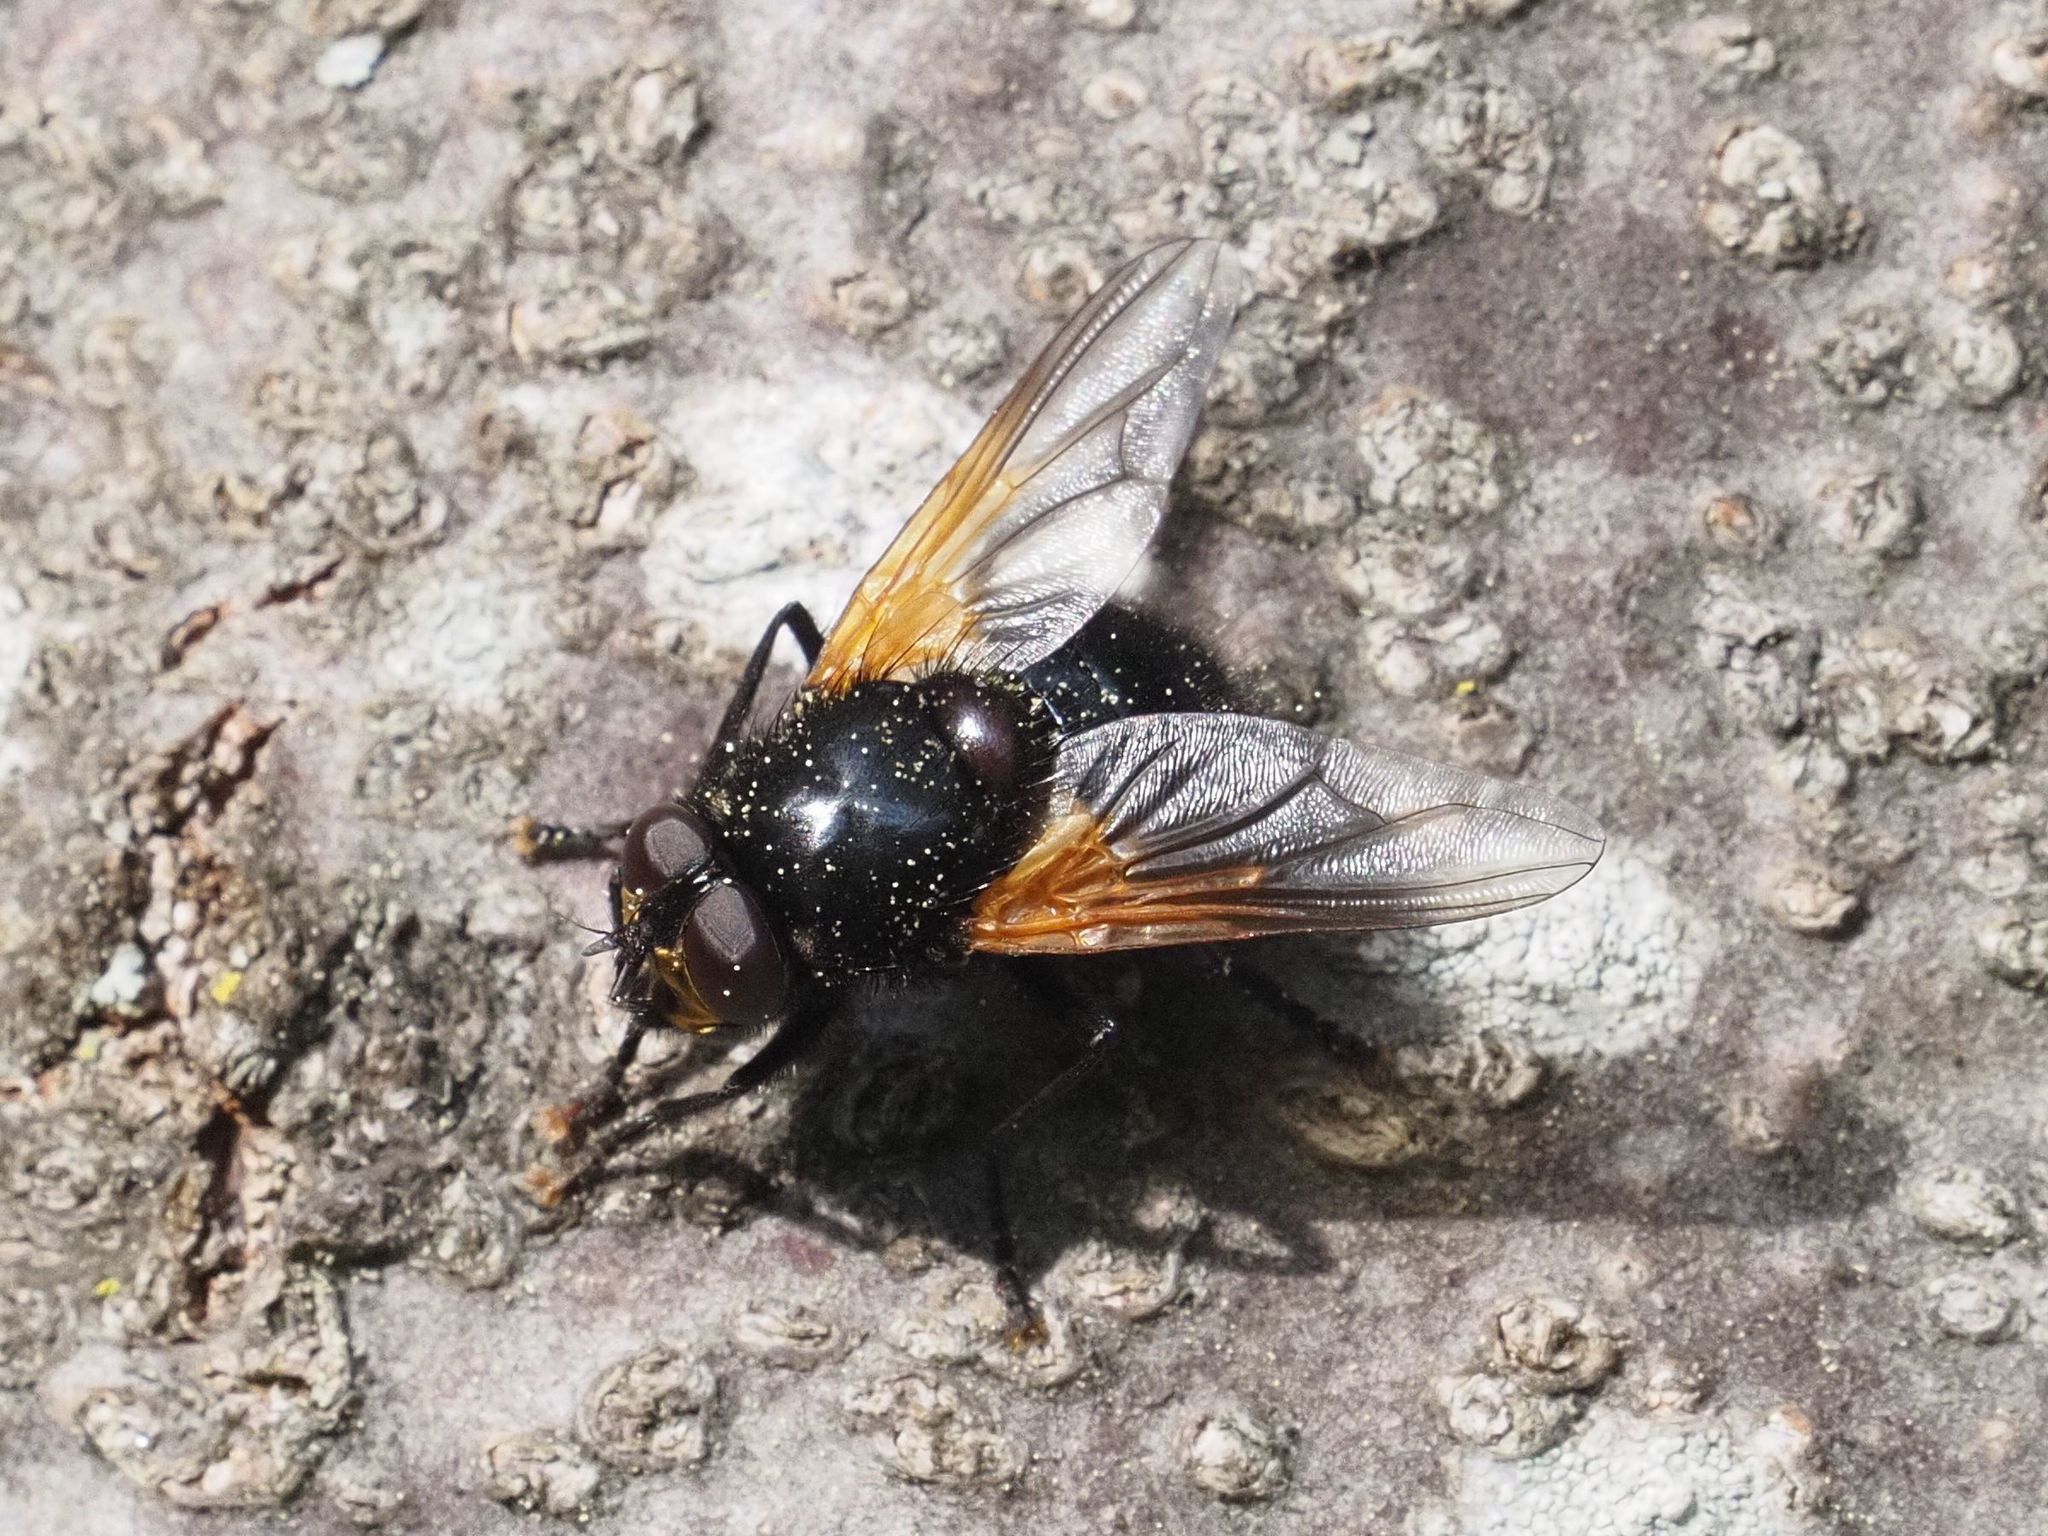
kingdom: Animalia
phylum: Arthropoda
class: Insecta
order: Diptera
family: Muscidae
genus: Mesembrina
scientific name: Mesembrina meridiana
